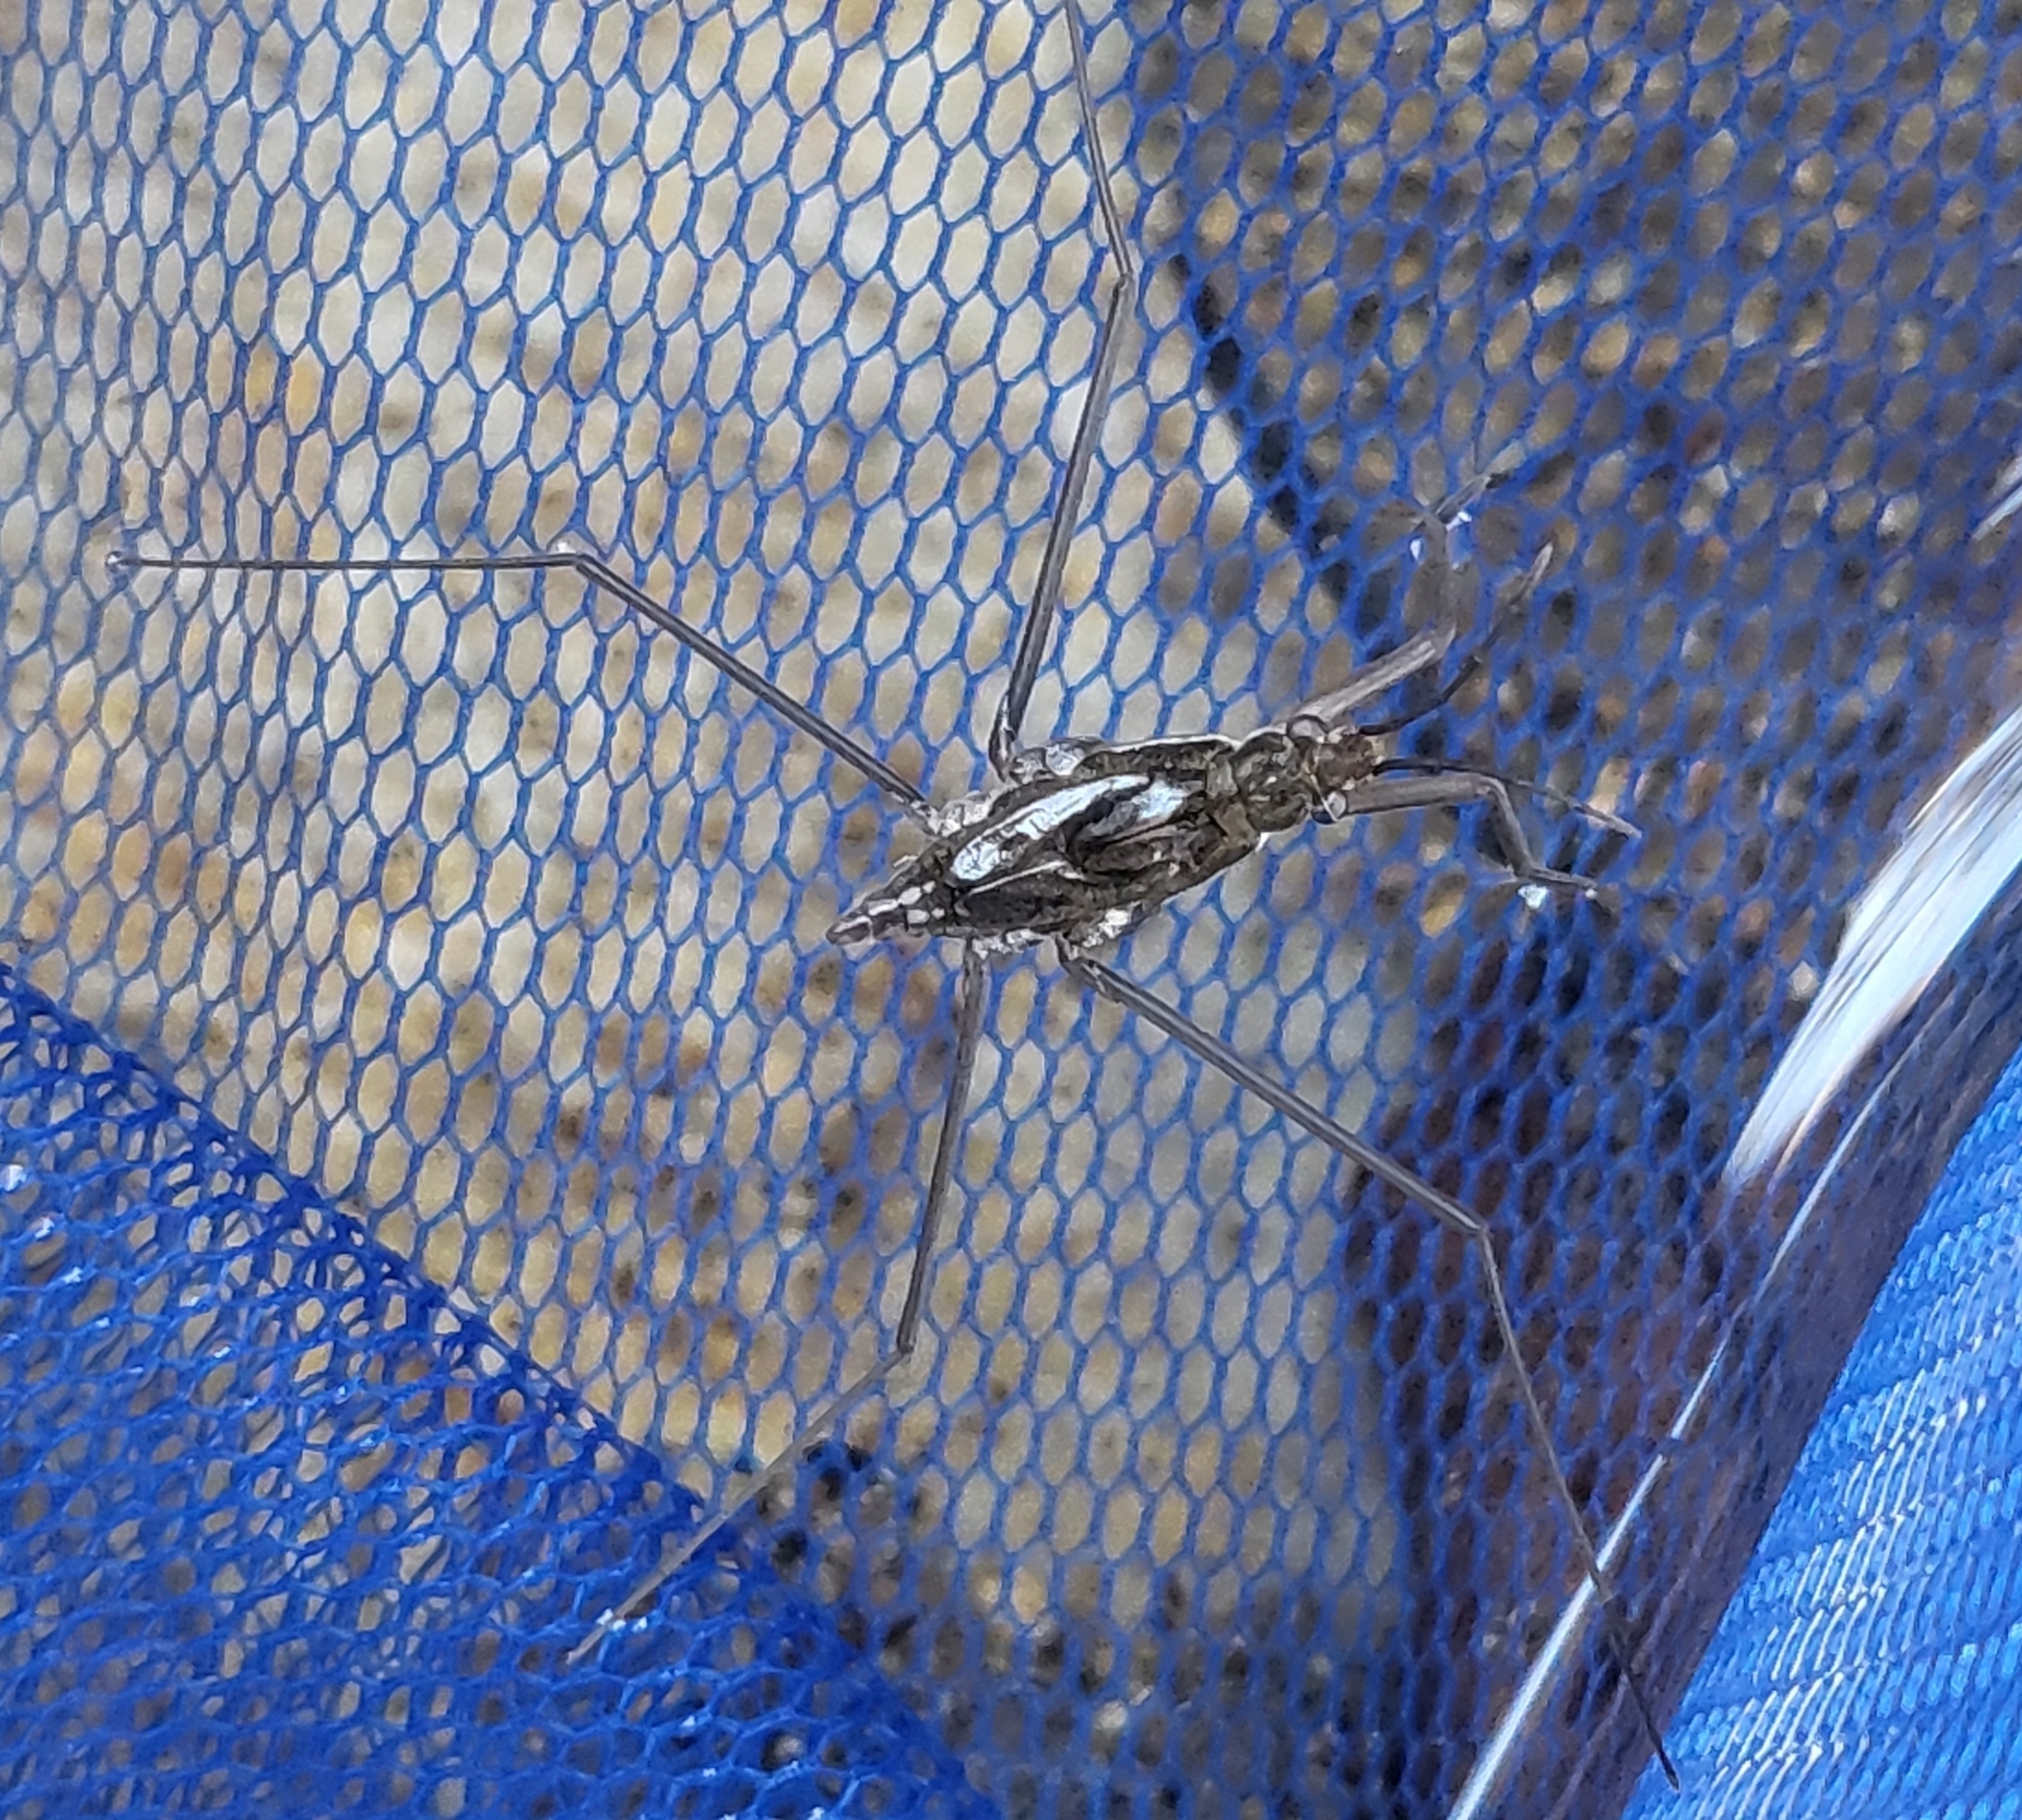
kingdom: Animalia
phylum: Arthropoda
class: Insecta
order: Hemiptera
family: Gerridae
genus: Aquarius
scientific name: Aquarius remigis
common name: Common water strider
